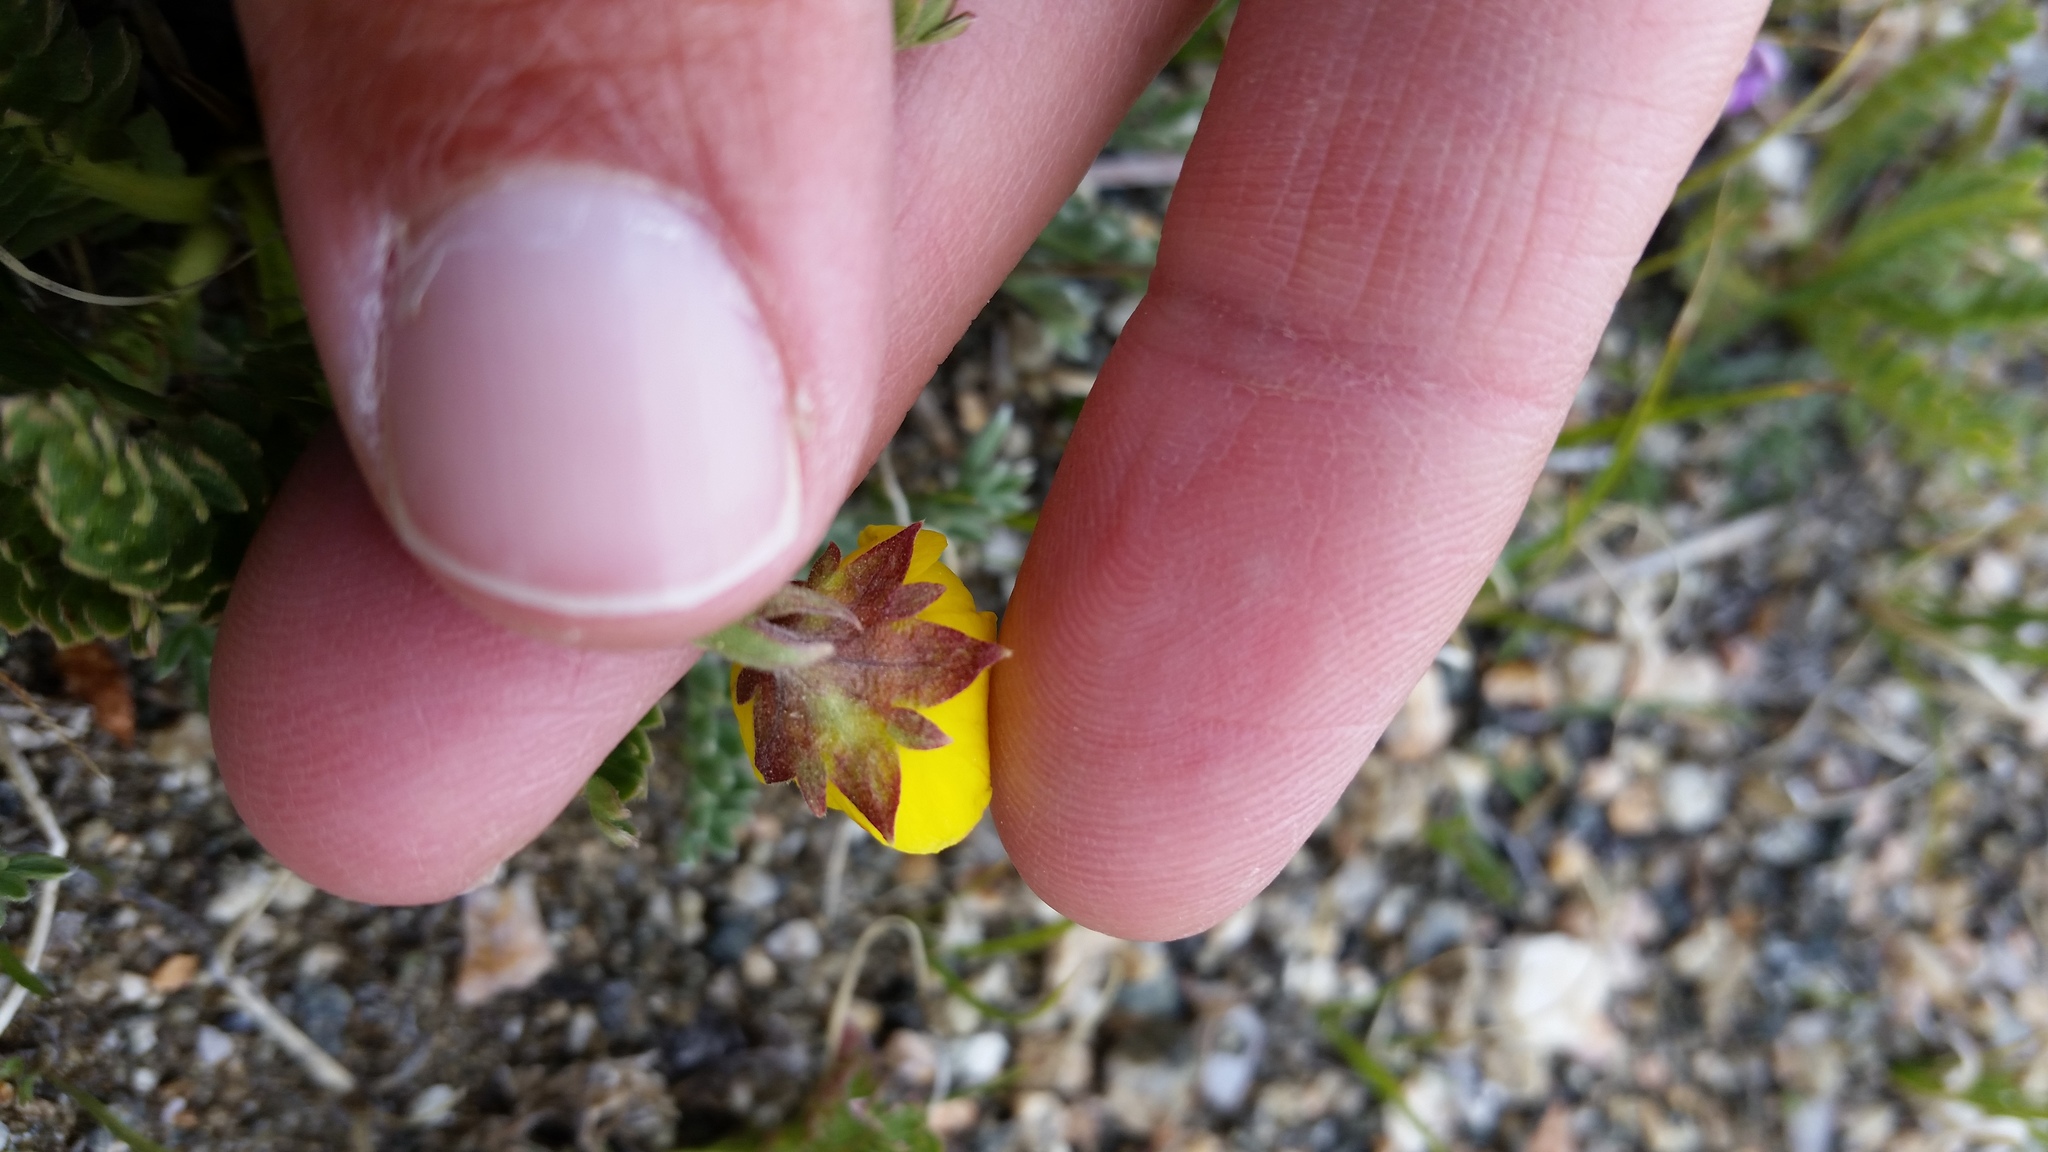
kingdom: Plantae
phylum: Tracheophyta
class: Magnoliopsida
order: Rosales
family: Rosaceae
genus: Geum
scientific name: Geum rossii
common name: Alpine avens
